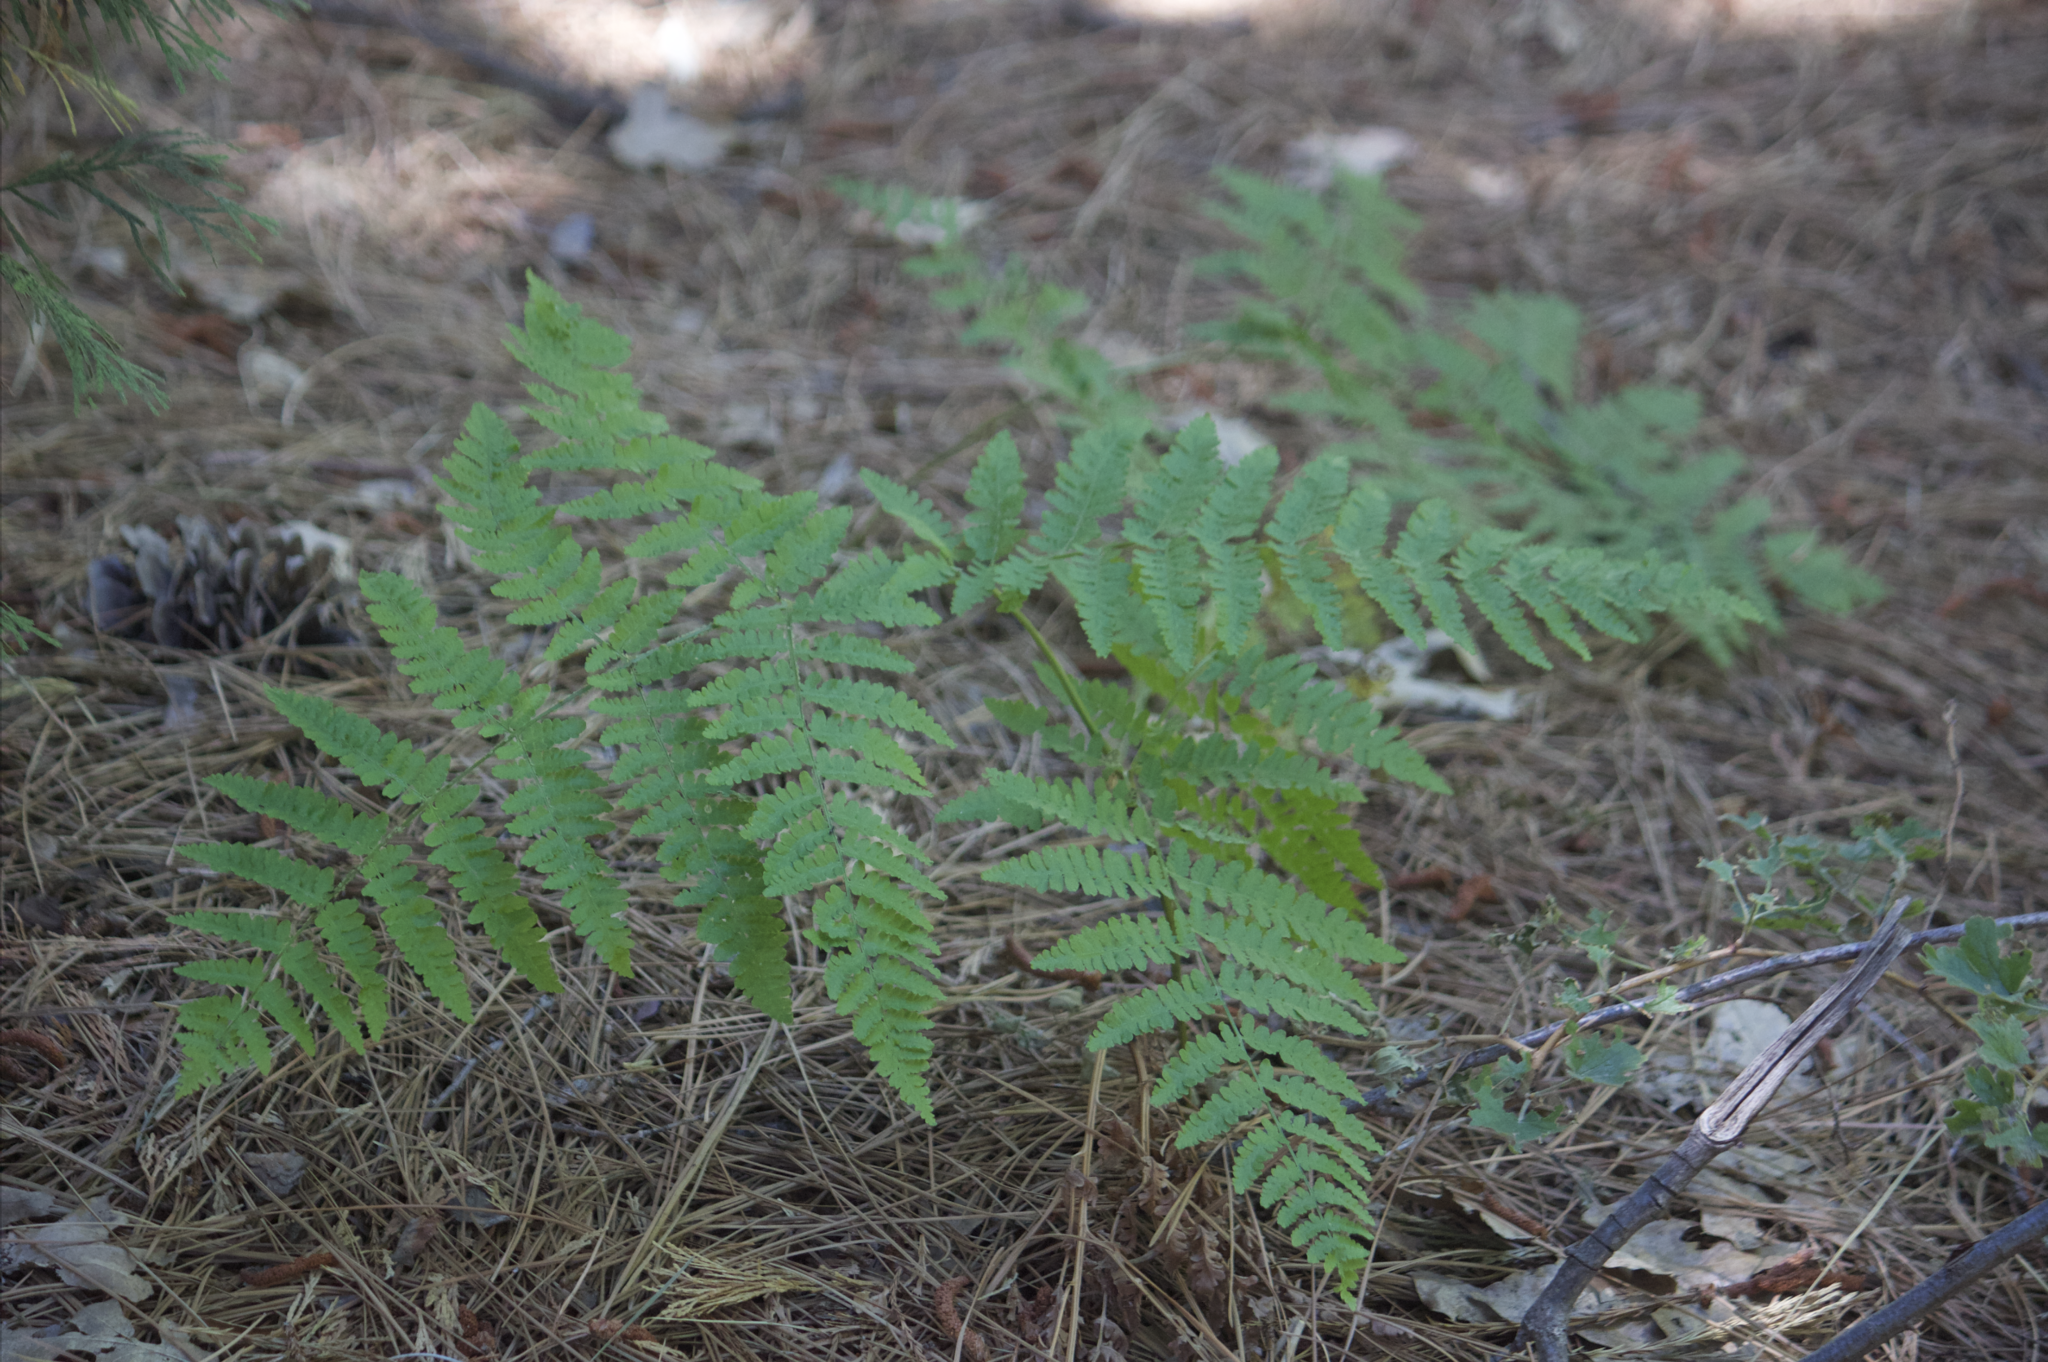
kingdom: Plantae
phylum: Tracheophyta
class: Polypodiopsida
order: Polypodiales
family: Dennstaedtiaceae
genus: Pteridium
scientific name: Pteridium aquilinum
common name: Bracken
